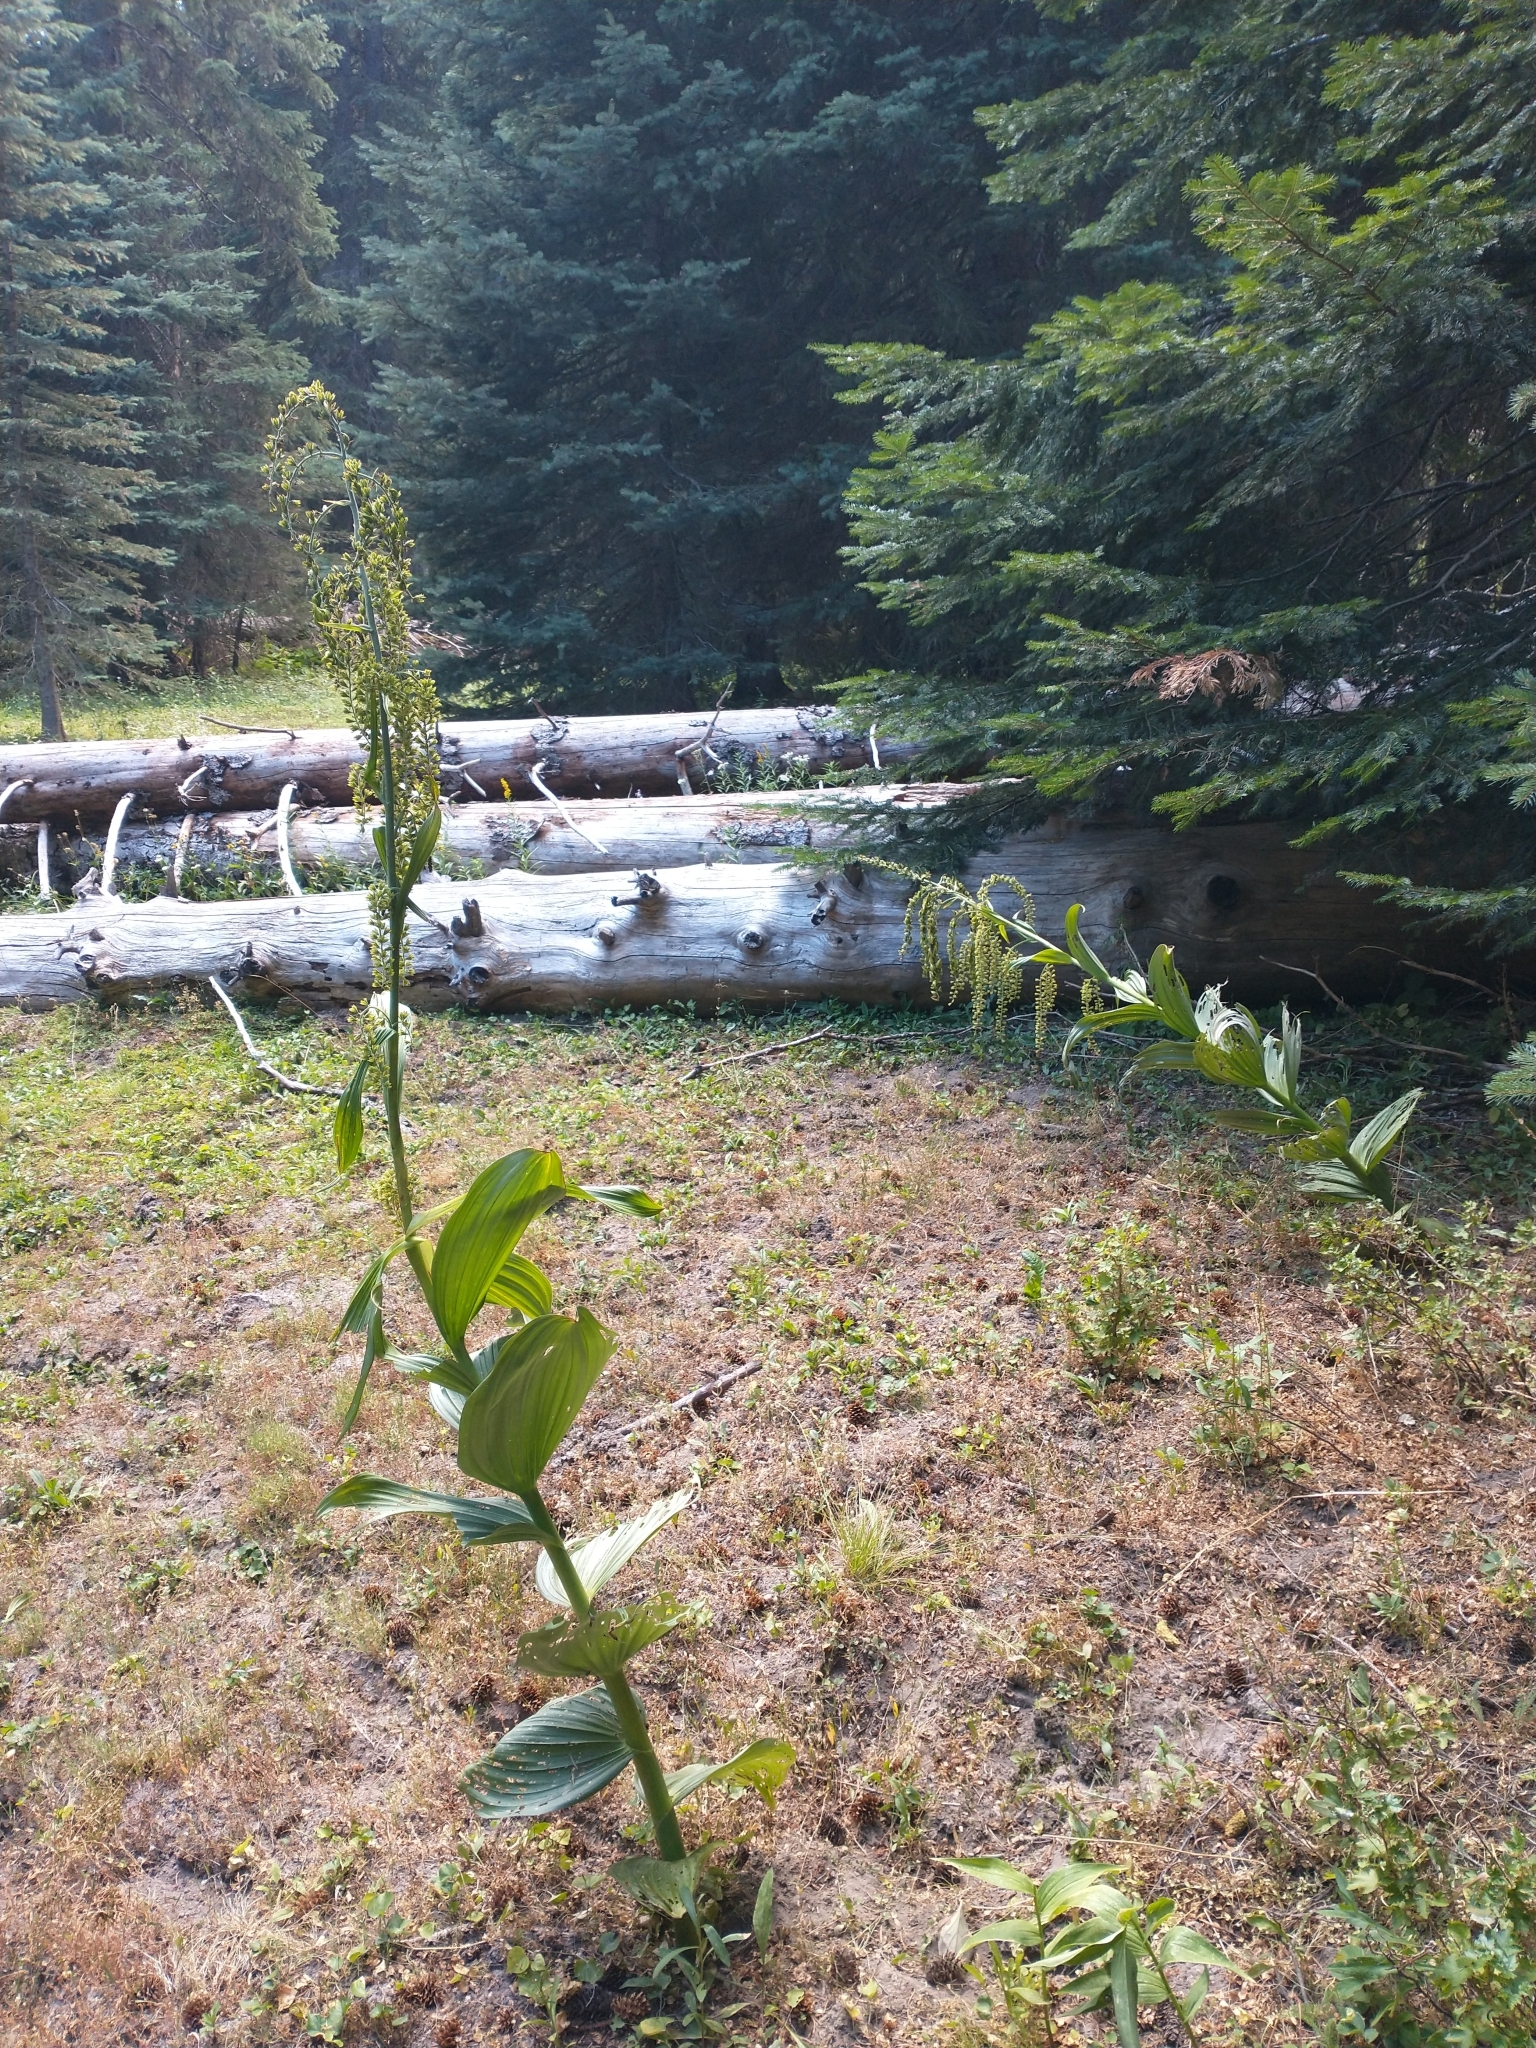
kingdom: Plantae
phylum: Tracheophyta
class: Liliopsida
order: Liliales
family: Melanthiaceae
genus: Veratrum
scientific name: Veratrum viride
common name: American false hellebore
